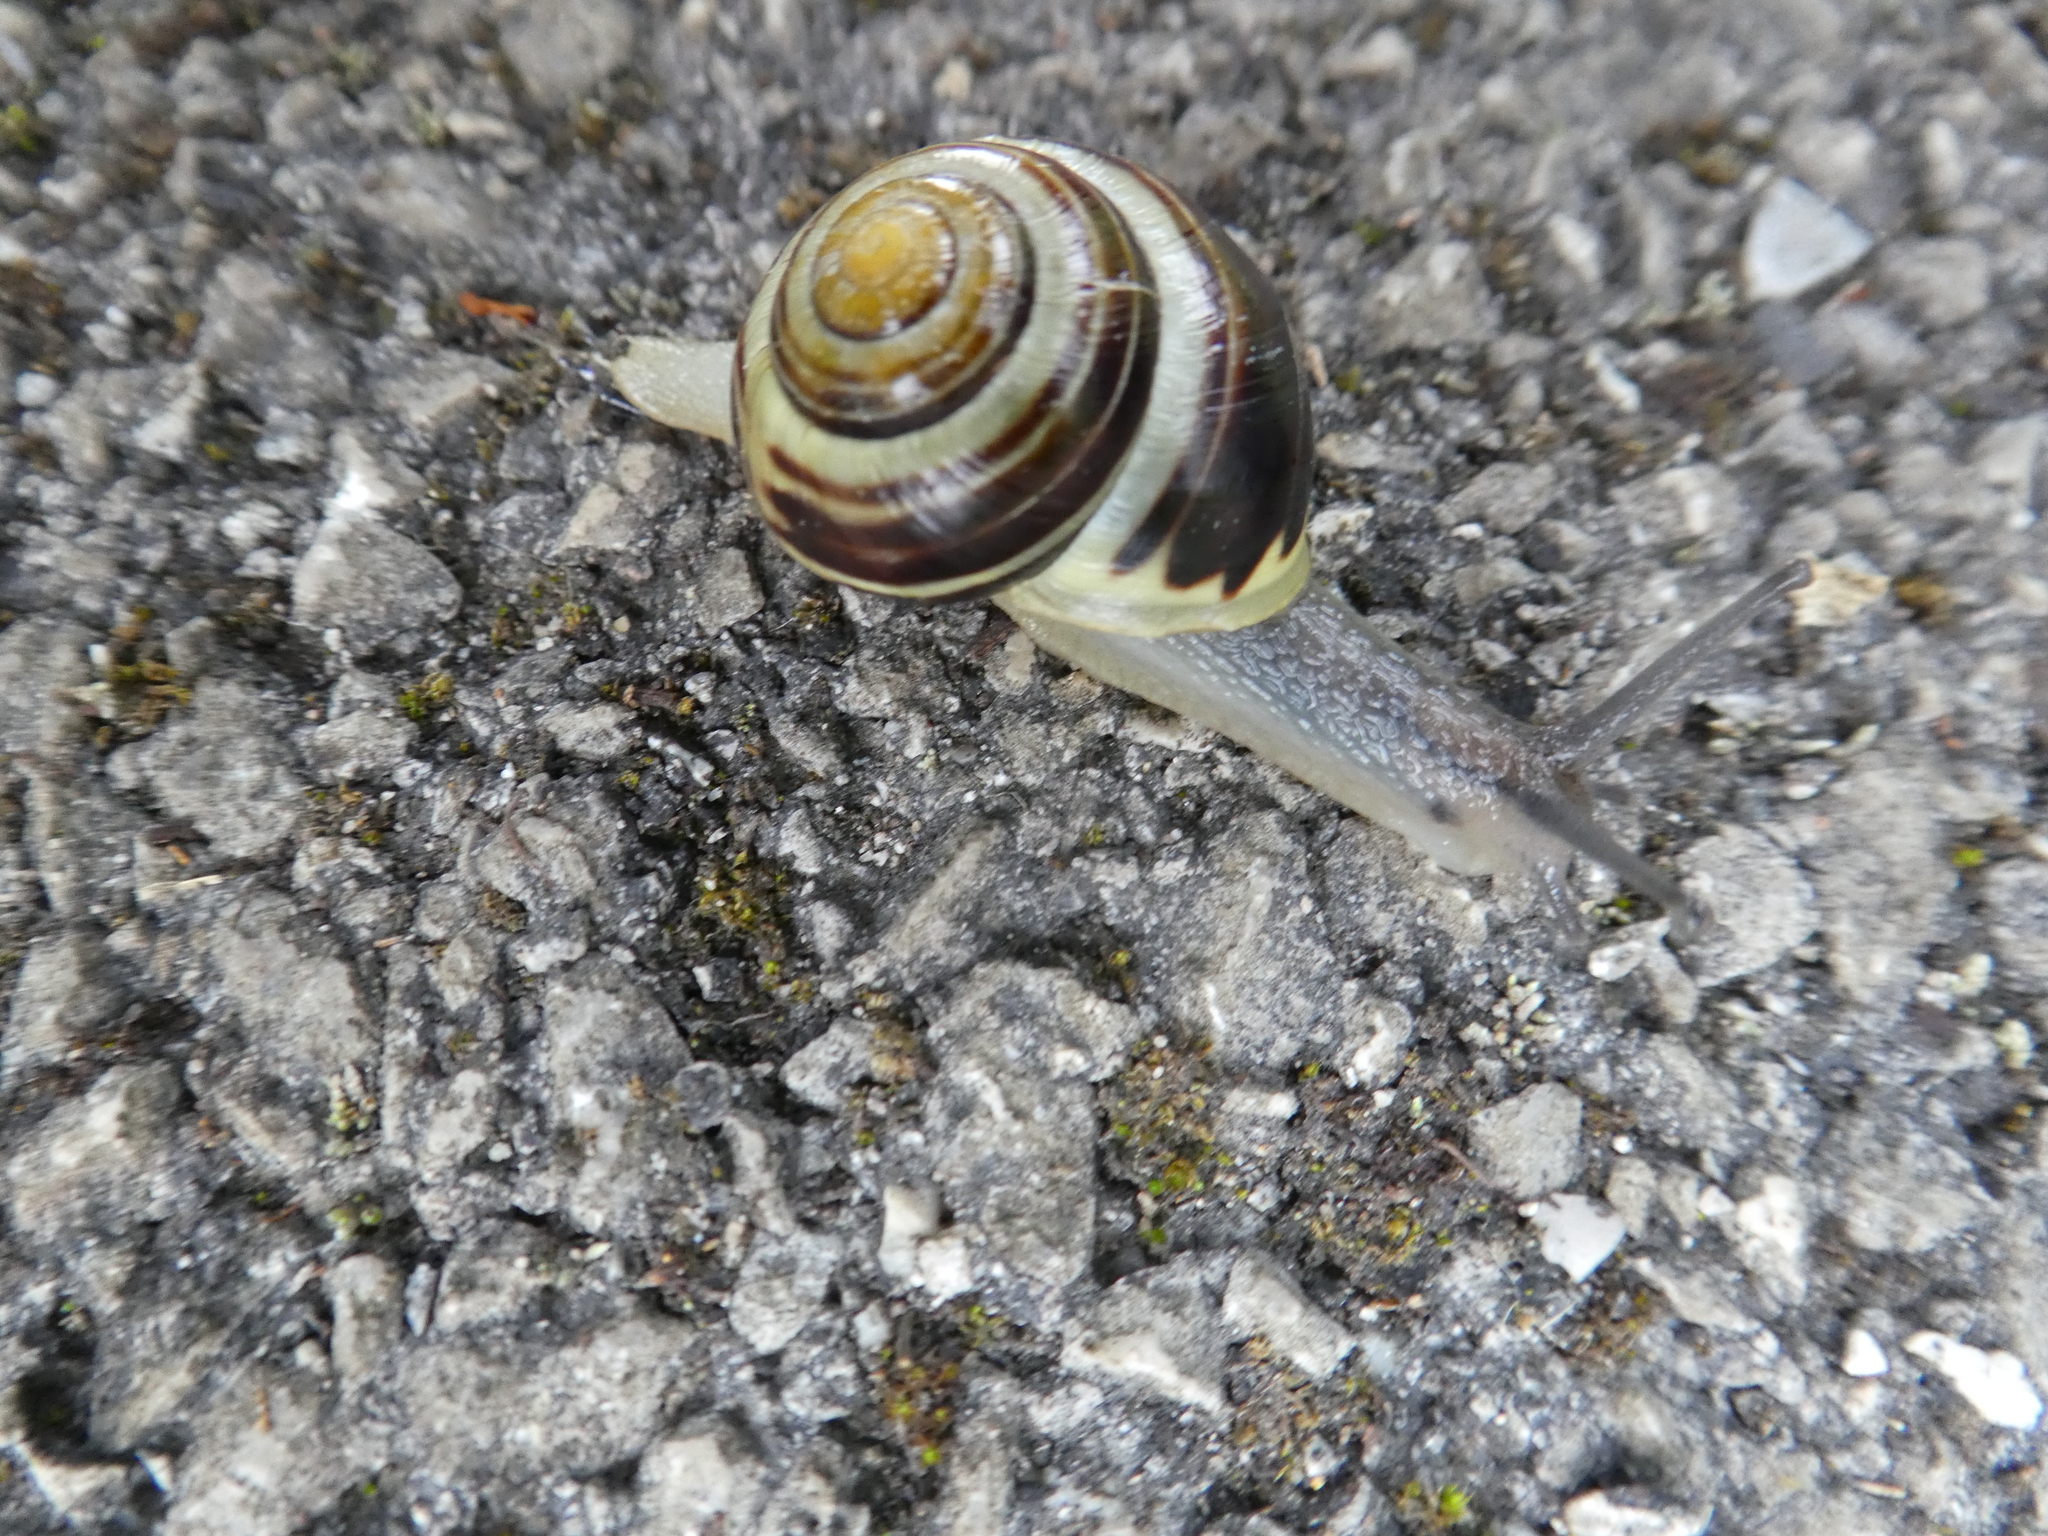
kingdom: Animalia
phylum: Mollusca
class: Gastropoda
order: Stylommatophora
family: Helicidae
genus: Cepaea
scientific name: Cepaea hortensis
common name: White-lip gardensnail
